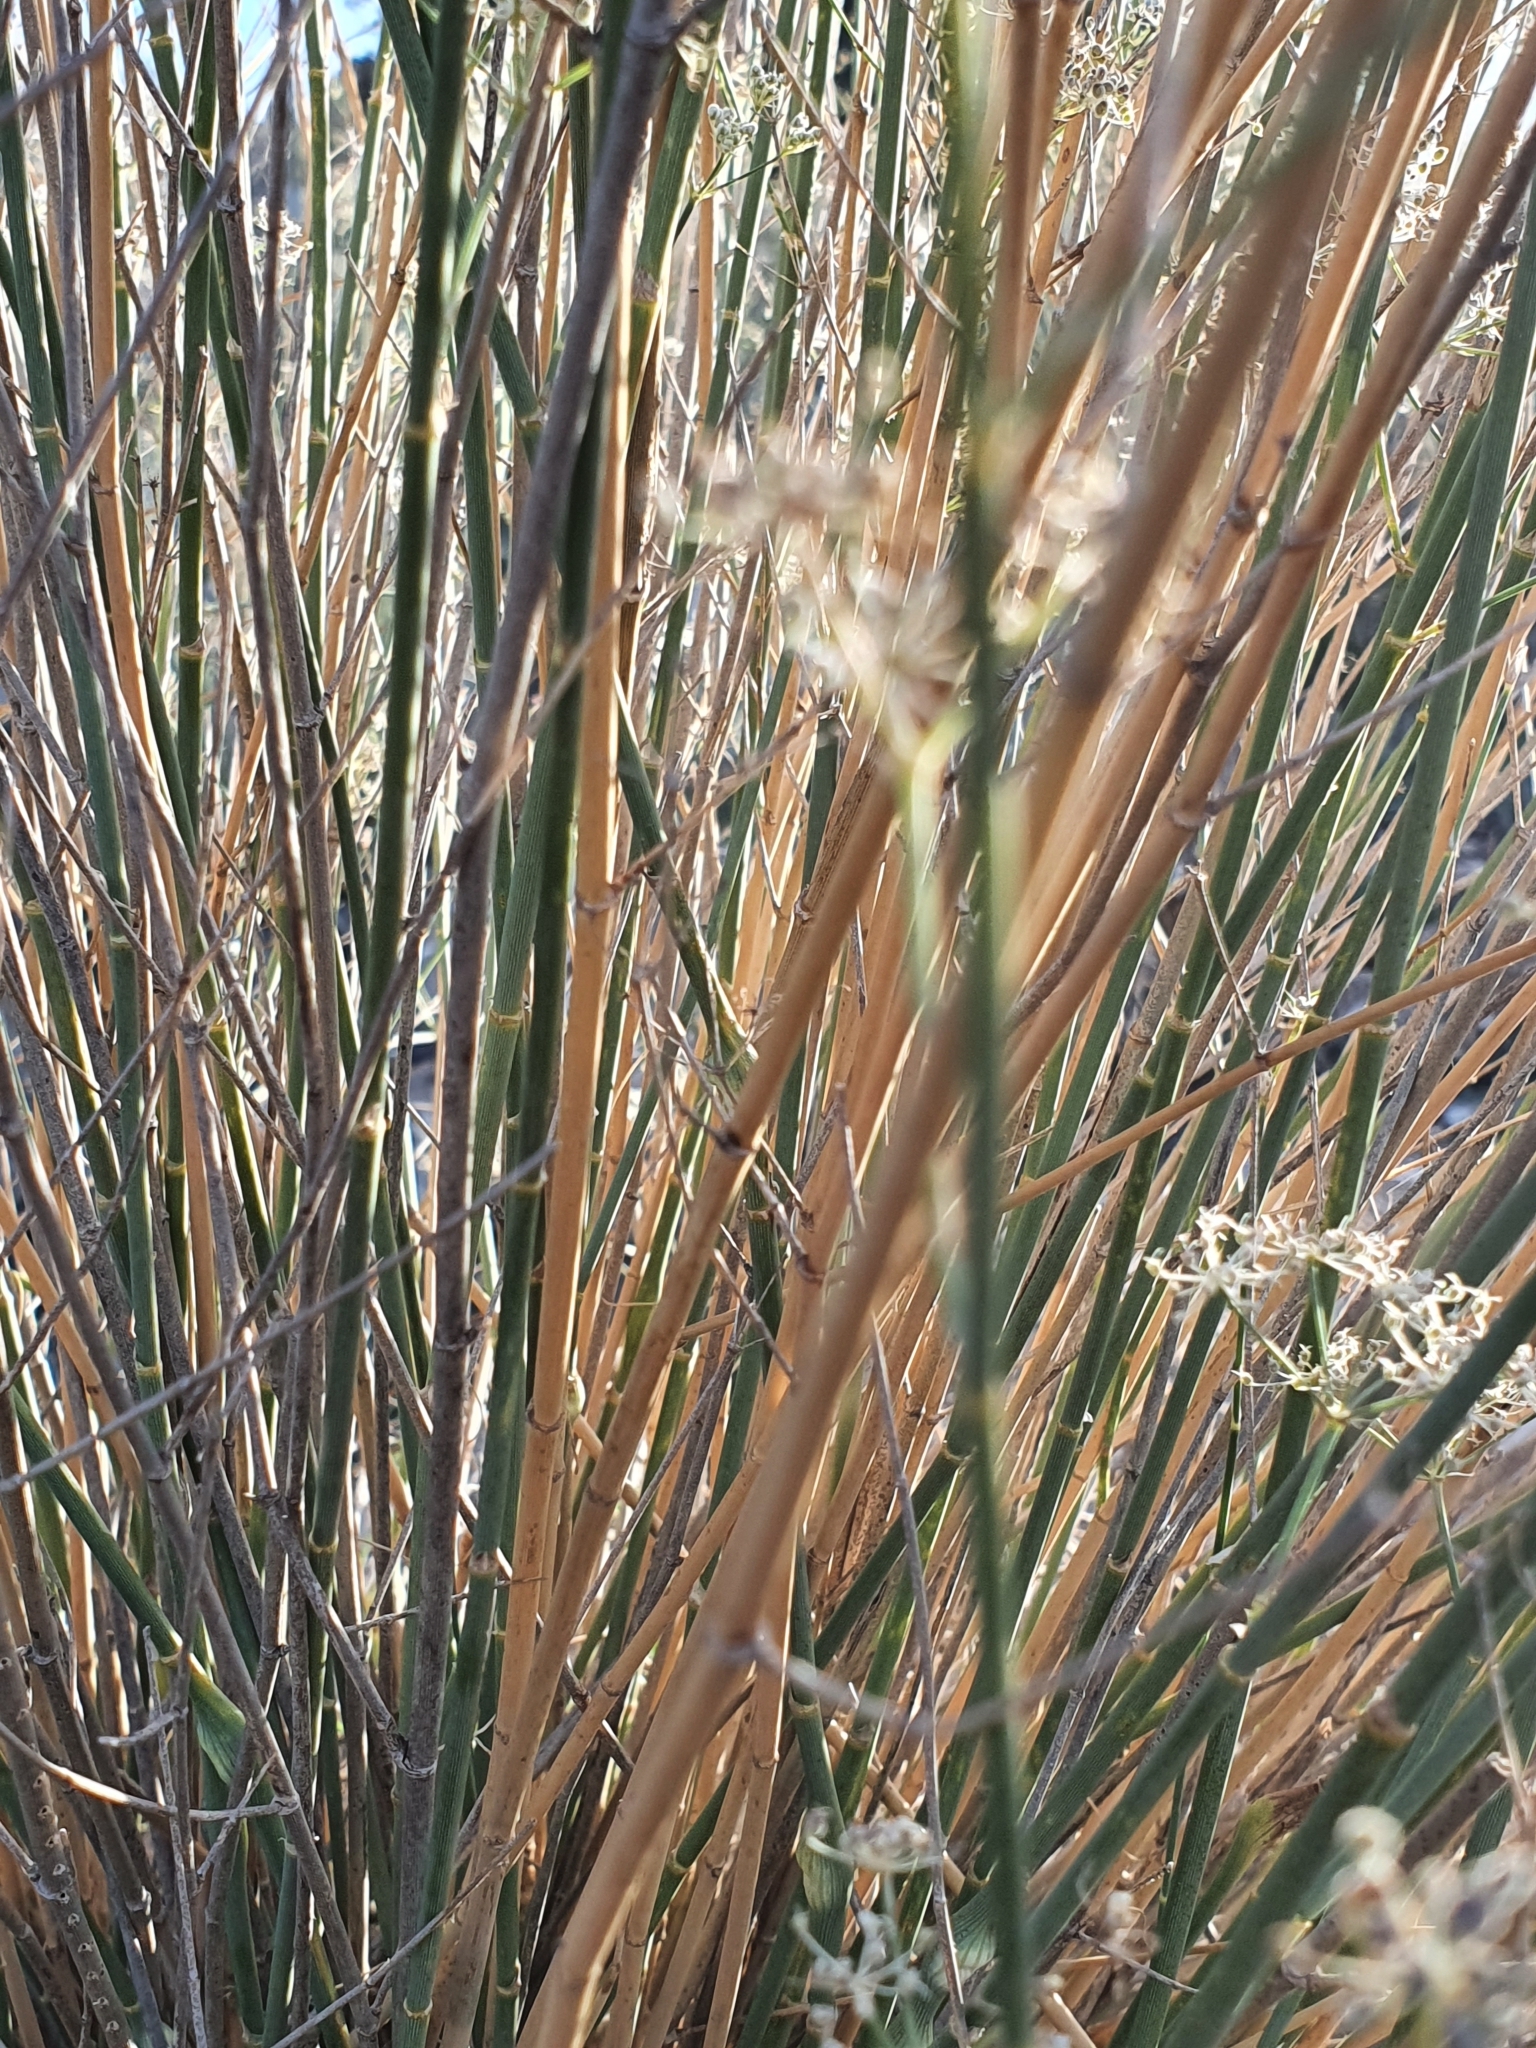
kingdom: Plantae
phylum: Tracheophyta
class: Magnoliopsida
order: Apiales
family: Apiaceae
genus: Deverra
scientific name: Deverra scoparia
